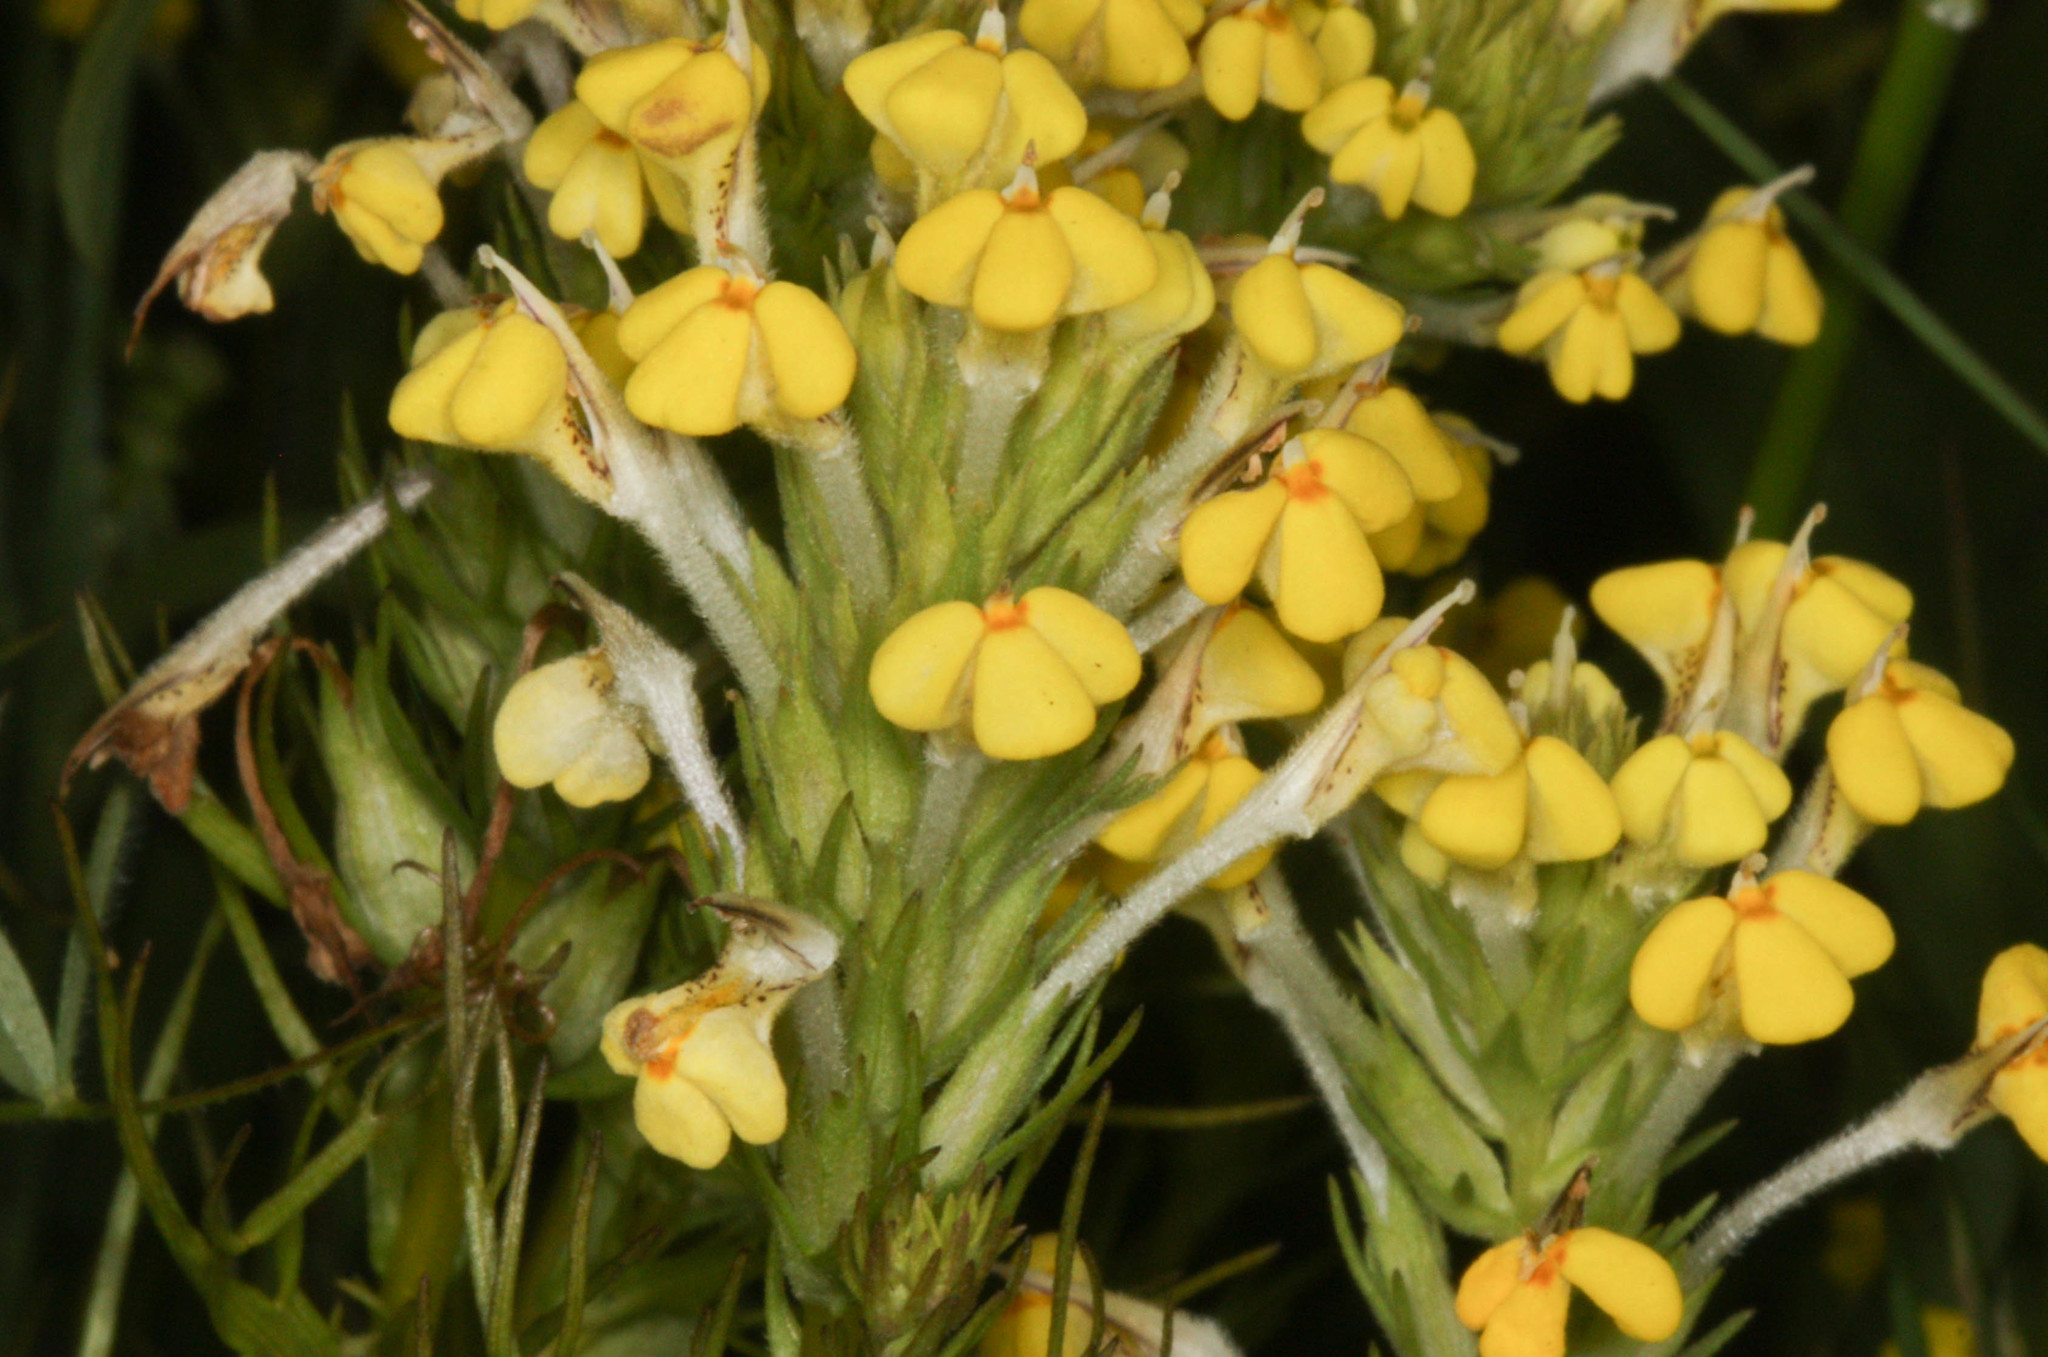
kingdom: Plantae
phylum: Tracheophyta
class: Magnoliopsida
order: Lamiales
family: Orobanchaceae
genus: Triphysaria
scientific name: Triphysaria versicolor
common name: Bearded false owl-clover
